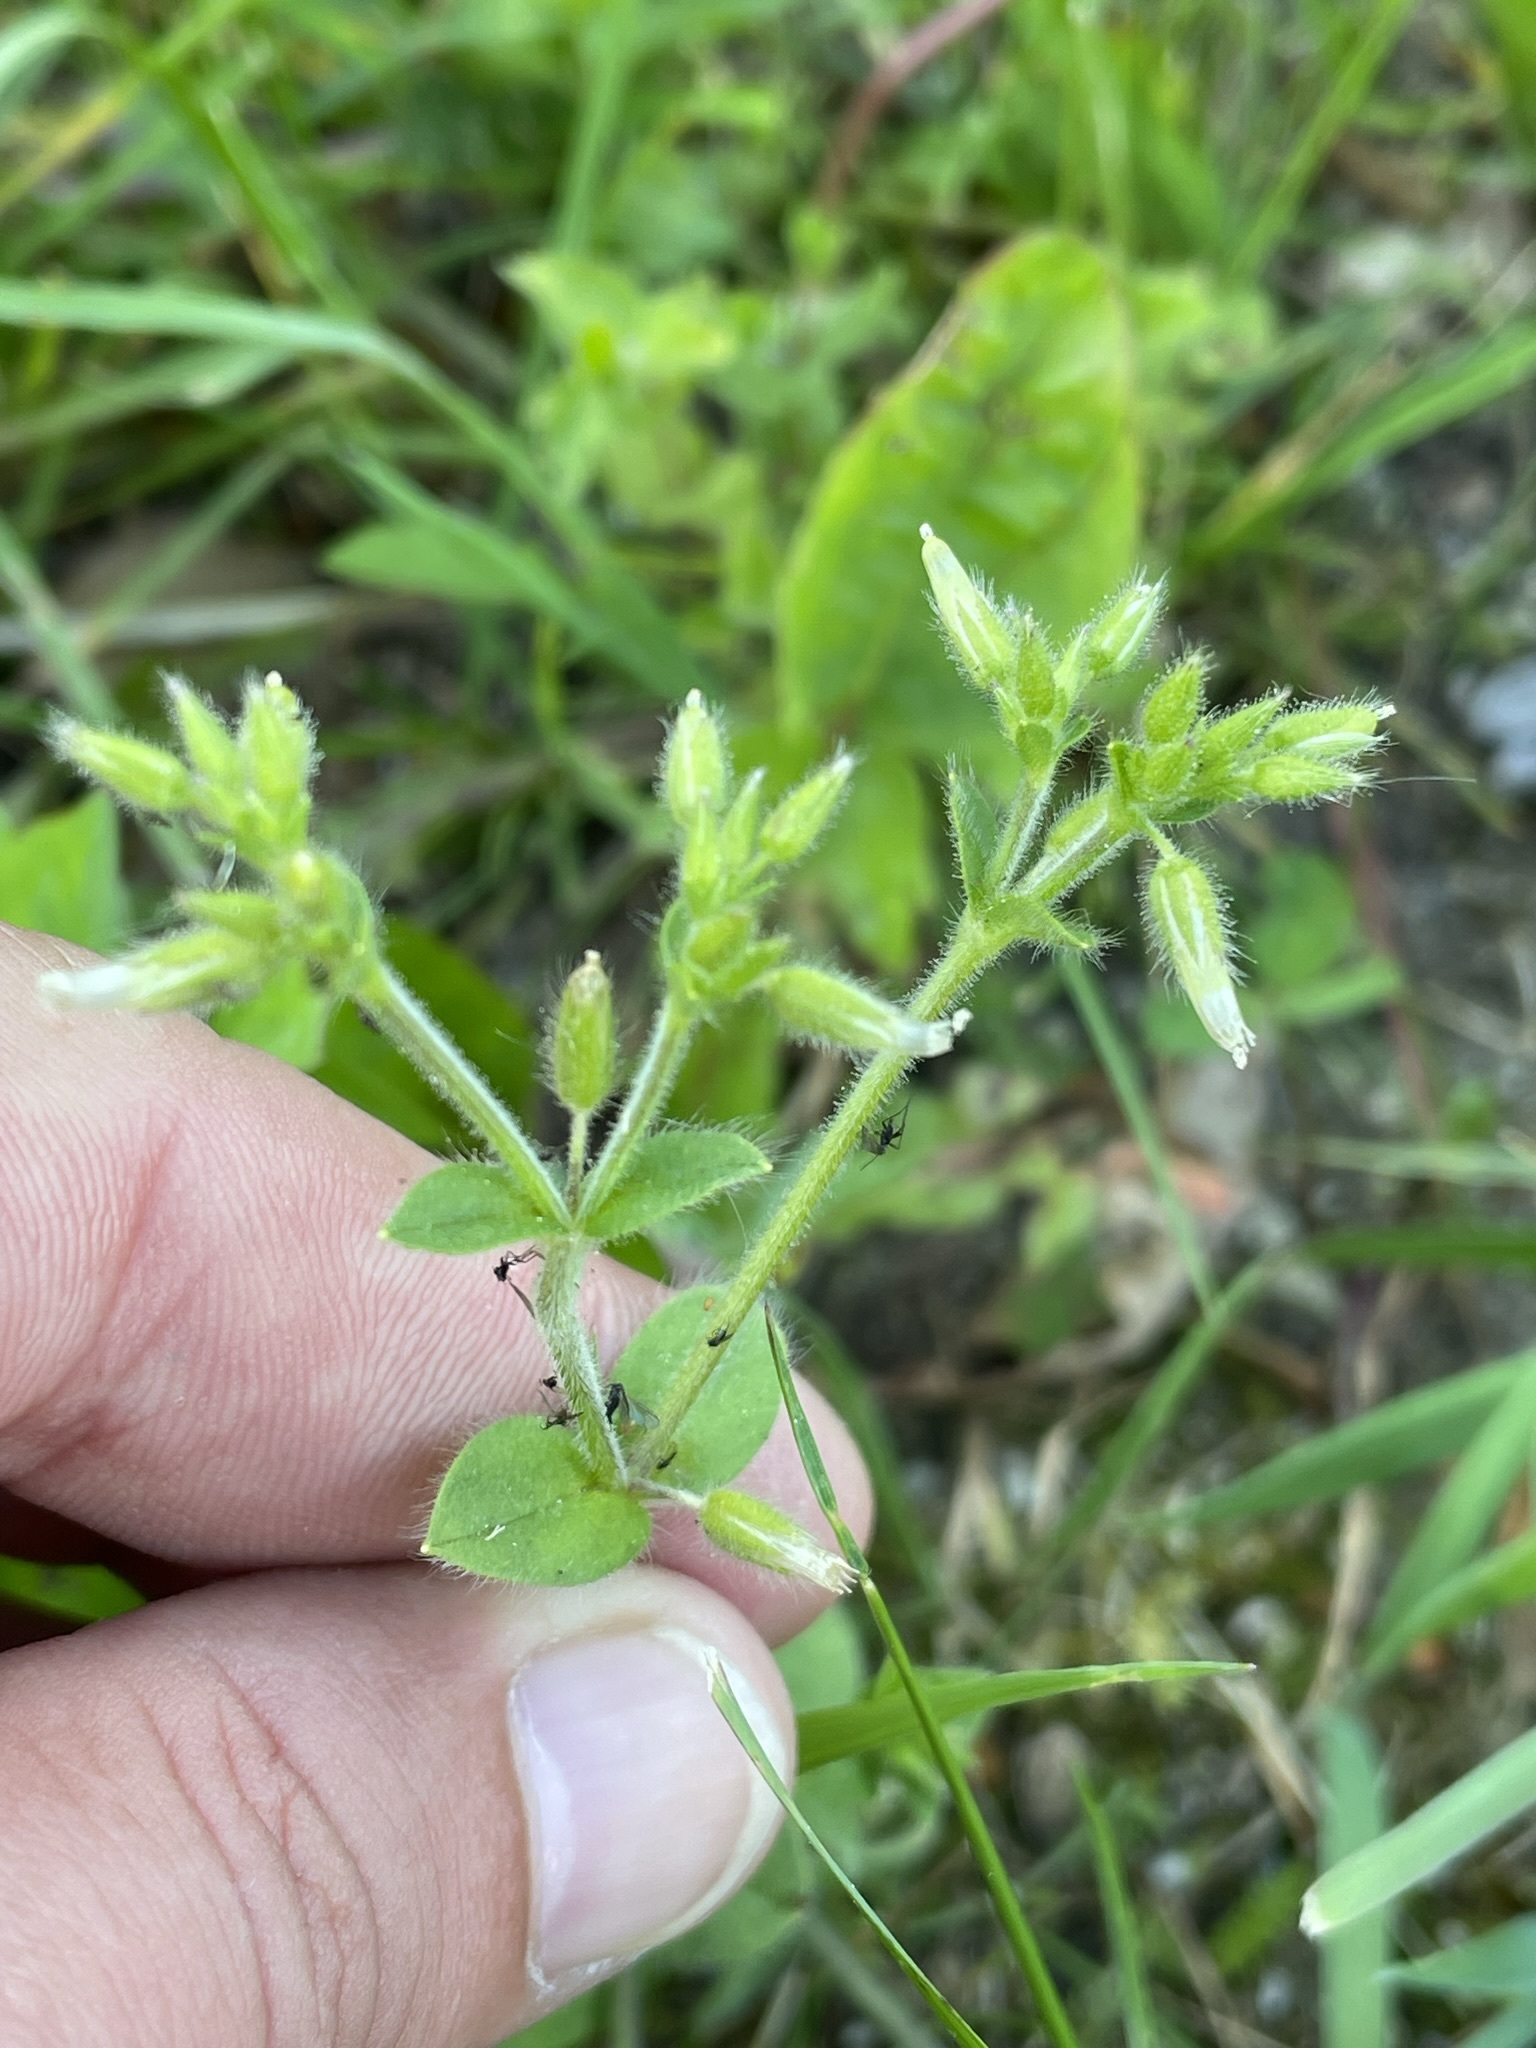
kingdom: Plantae
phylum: Tracheophyta
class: Magnoliopsida
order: Caryophyllales
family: Caryophyllaceae
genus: Cerastium
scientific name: Cerastium glomeratum
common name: Sticky chickweed
